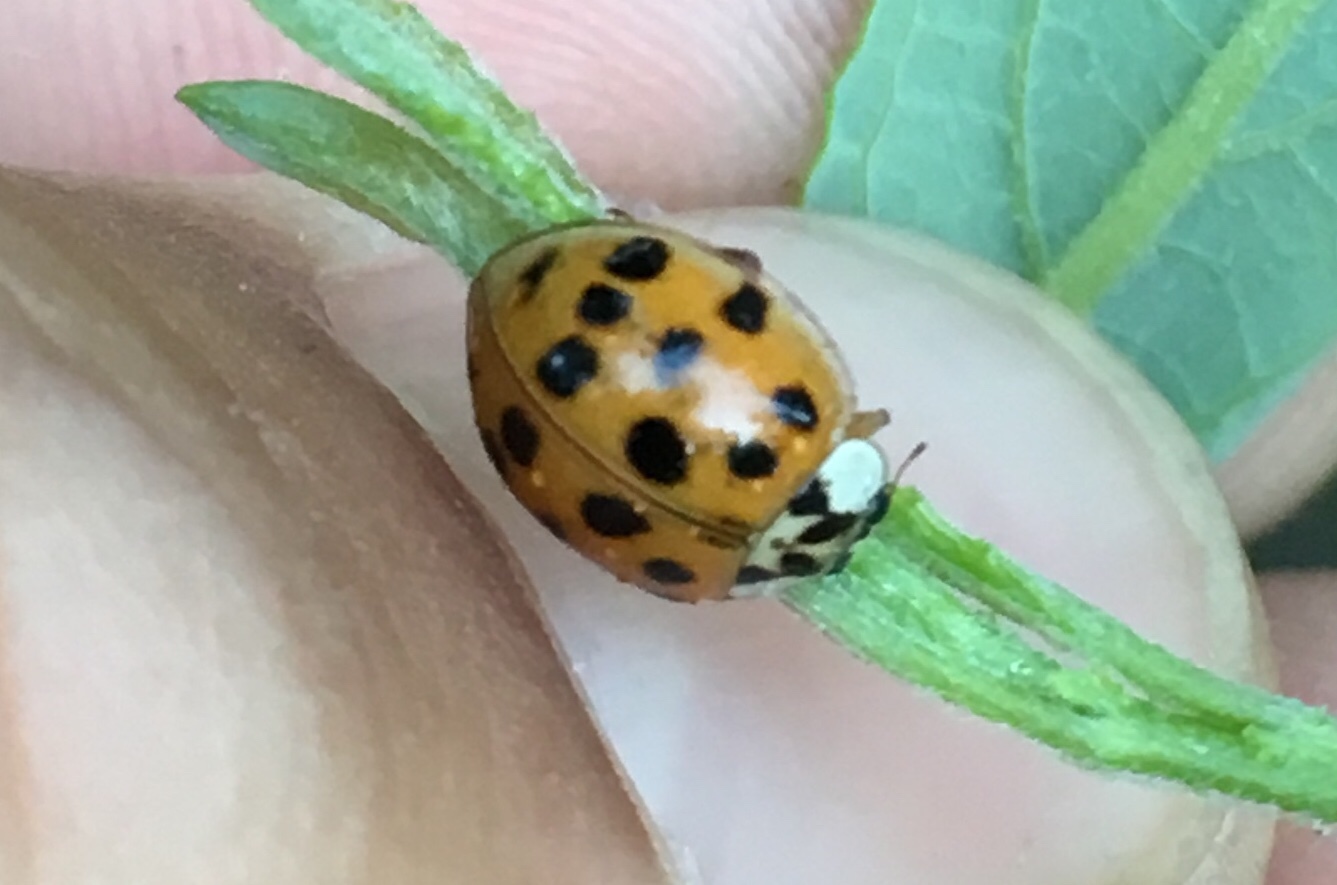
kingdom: Animalia
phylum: Arthropoda
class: Insecta
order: Coleoptera
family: Coccinellidae
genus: Harmonia
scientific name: Harmonia axyridis
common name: Harlequin ladybird
